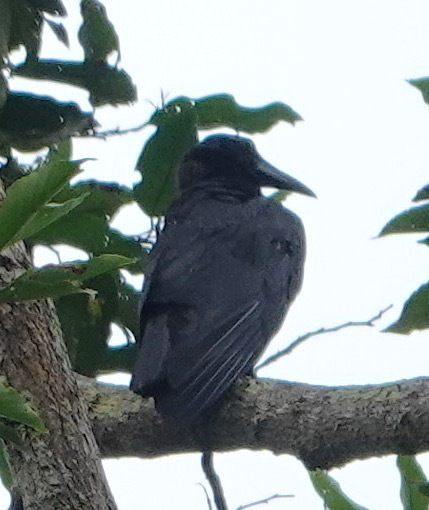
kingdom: Animalia
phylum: Chordata
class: Aves
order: Passeriformes
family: Corvidae
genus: Corvus
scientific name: Corvus enca
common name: Slender-billed crow
